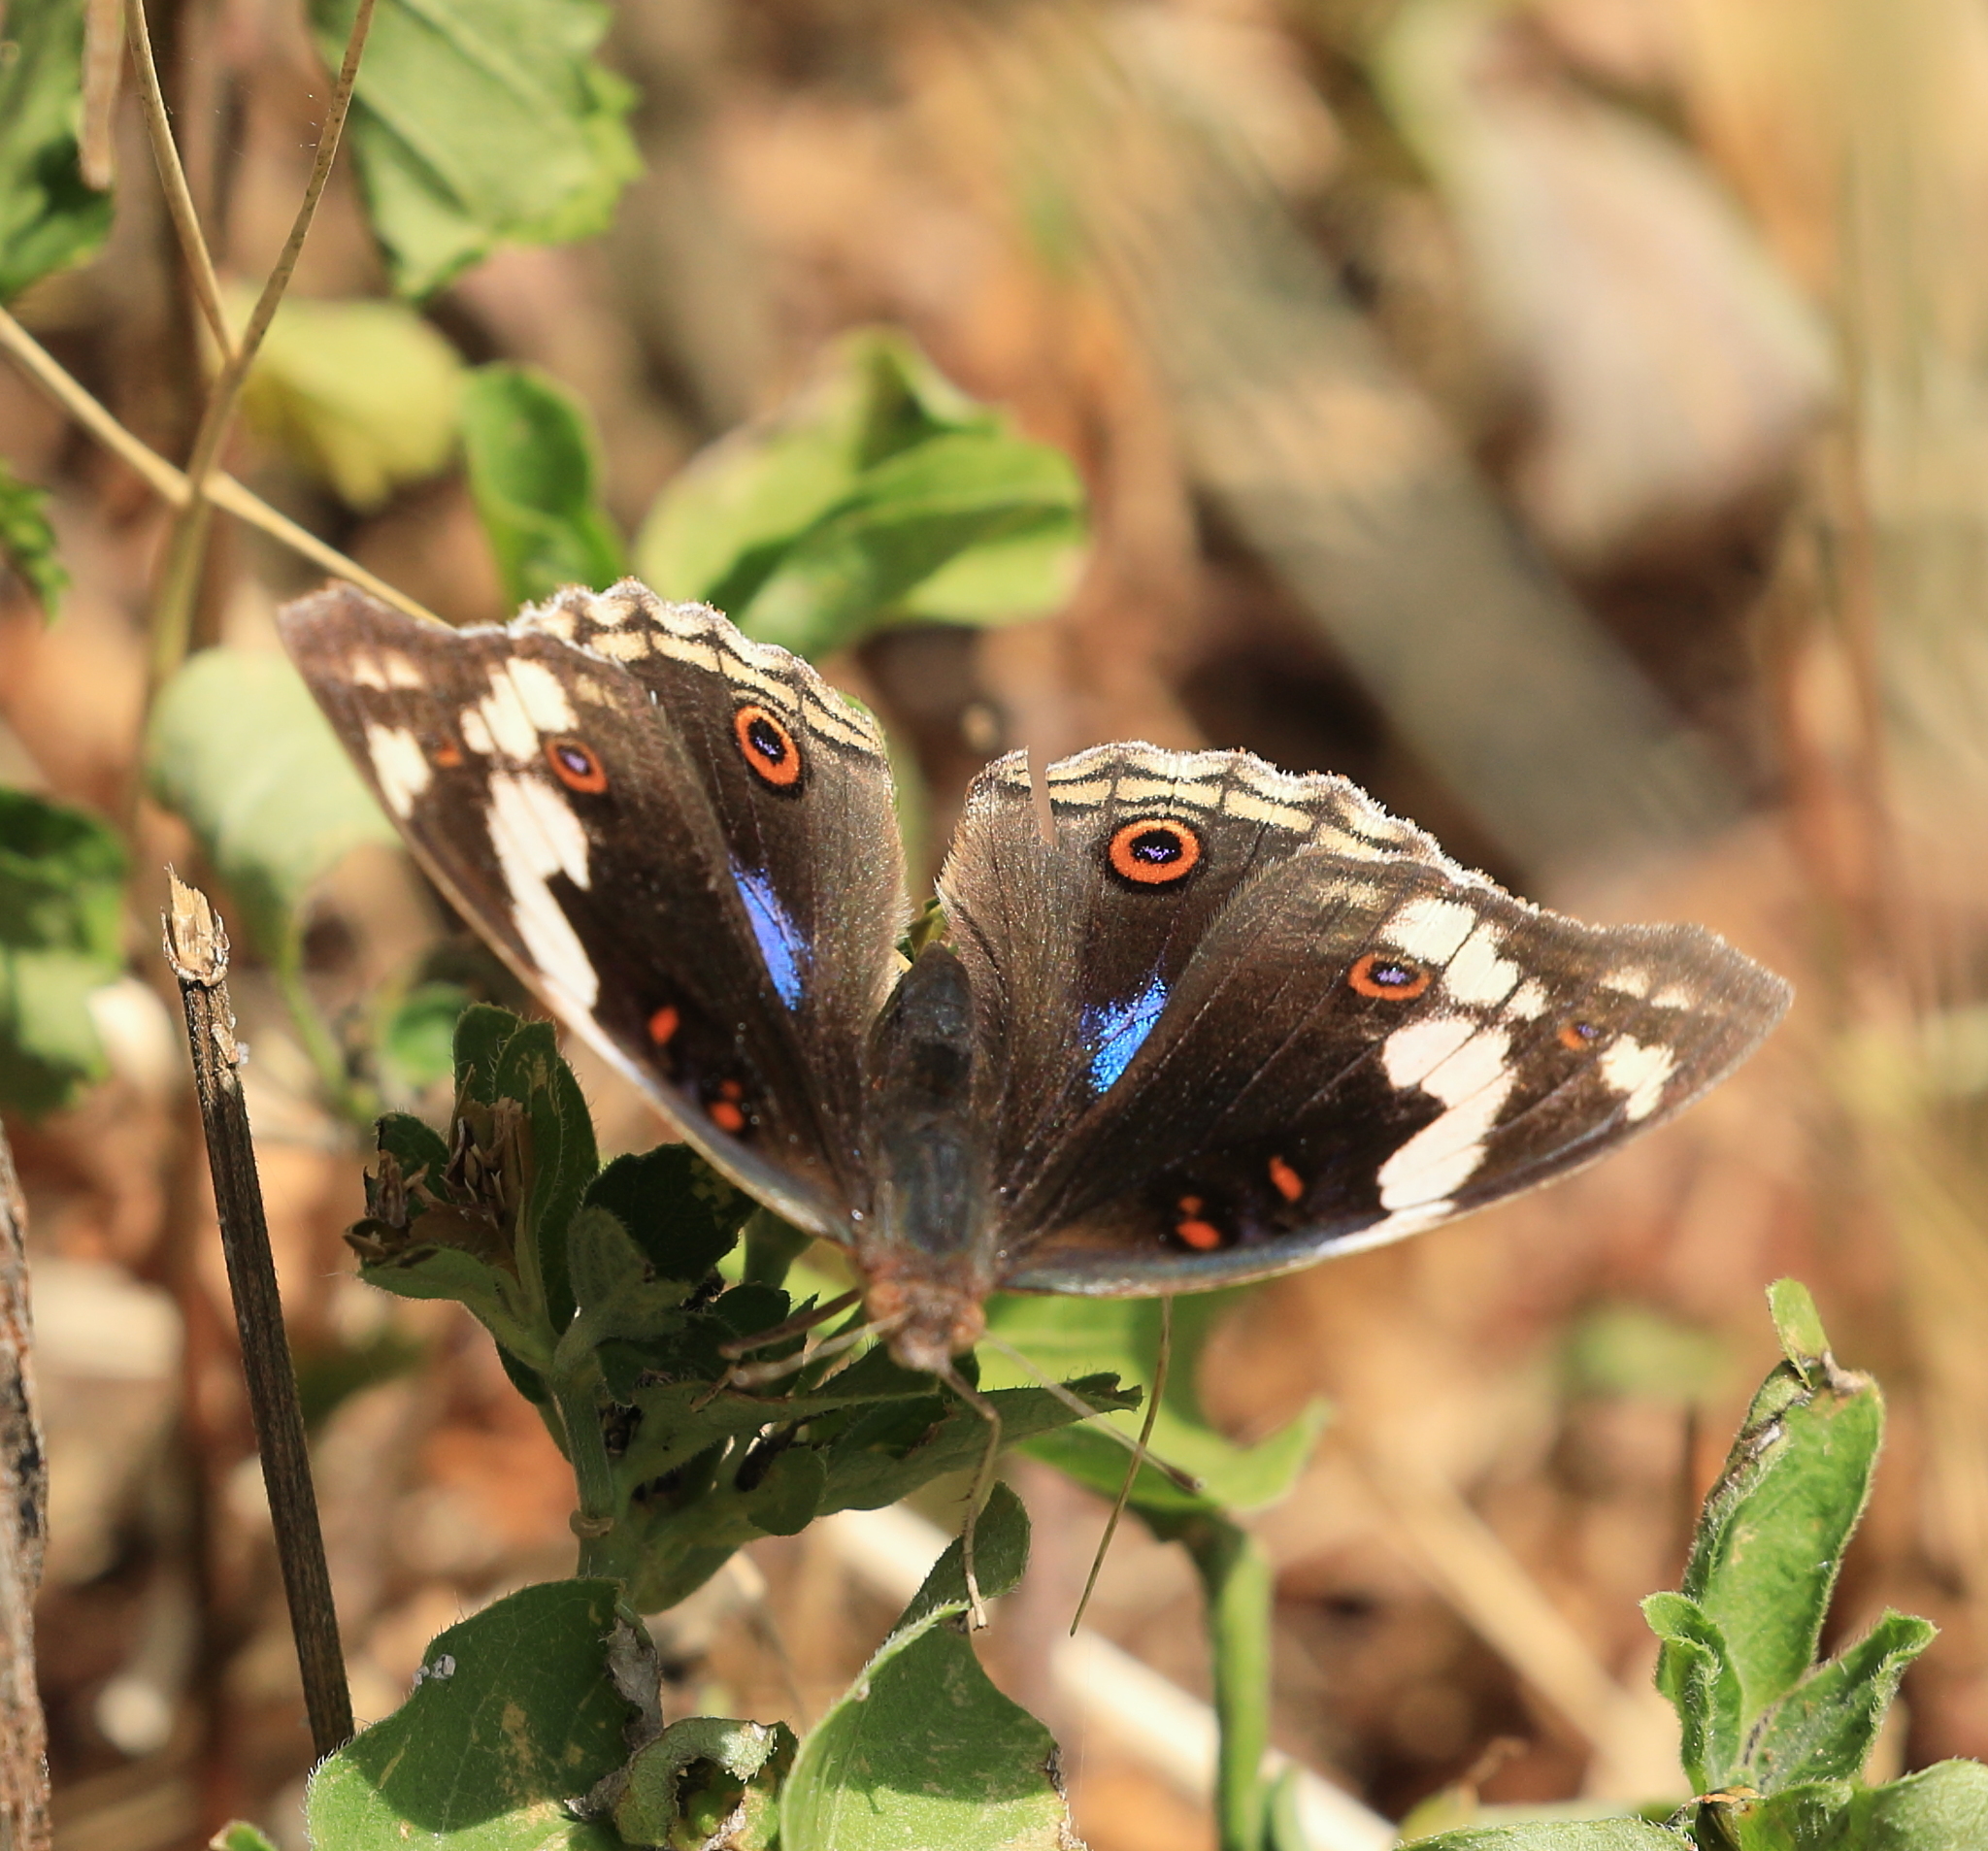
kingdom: Animalia
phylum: Arthropoda
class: Insecta
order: Lepidoptera
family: Nymphalidae
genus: Junonia
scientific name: Junonia oenone
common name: Dark blue pansy
